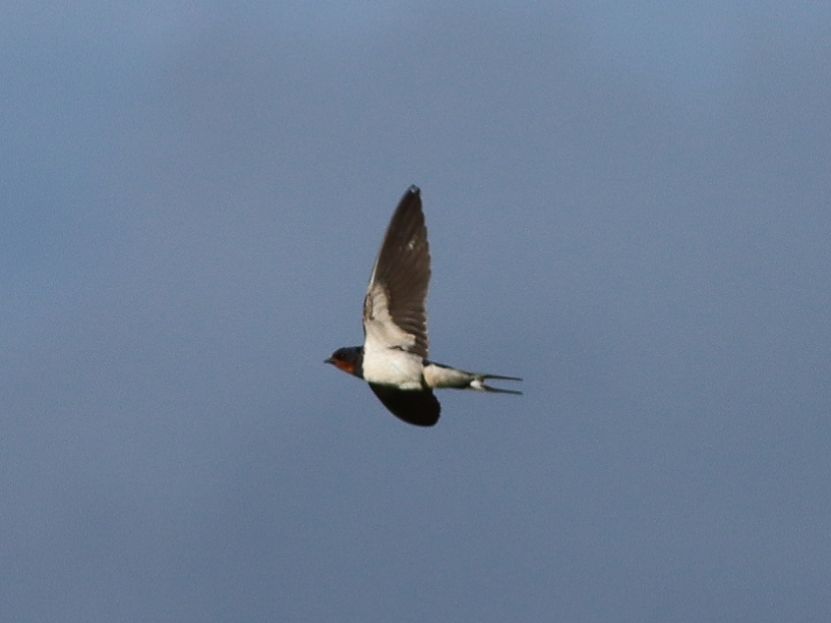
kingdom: Animalia
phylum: Chordata
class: Aves
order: Passeriformes
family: Hirundinidae
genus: Hirundo
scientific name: Hirundo rustica
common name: Barn swallow
